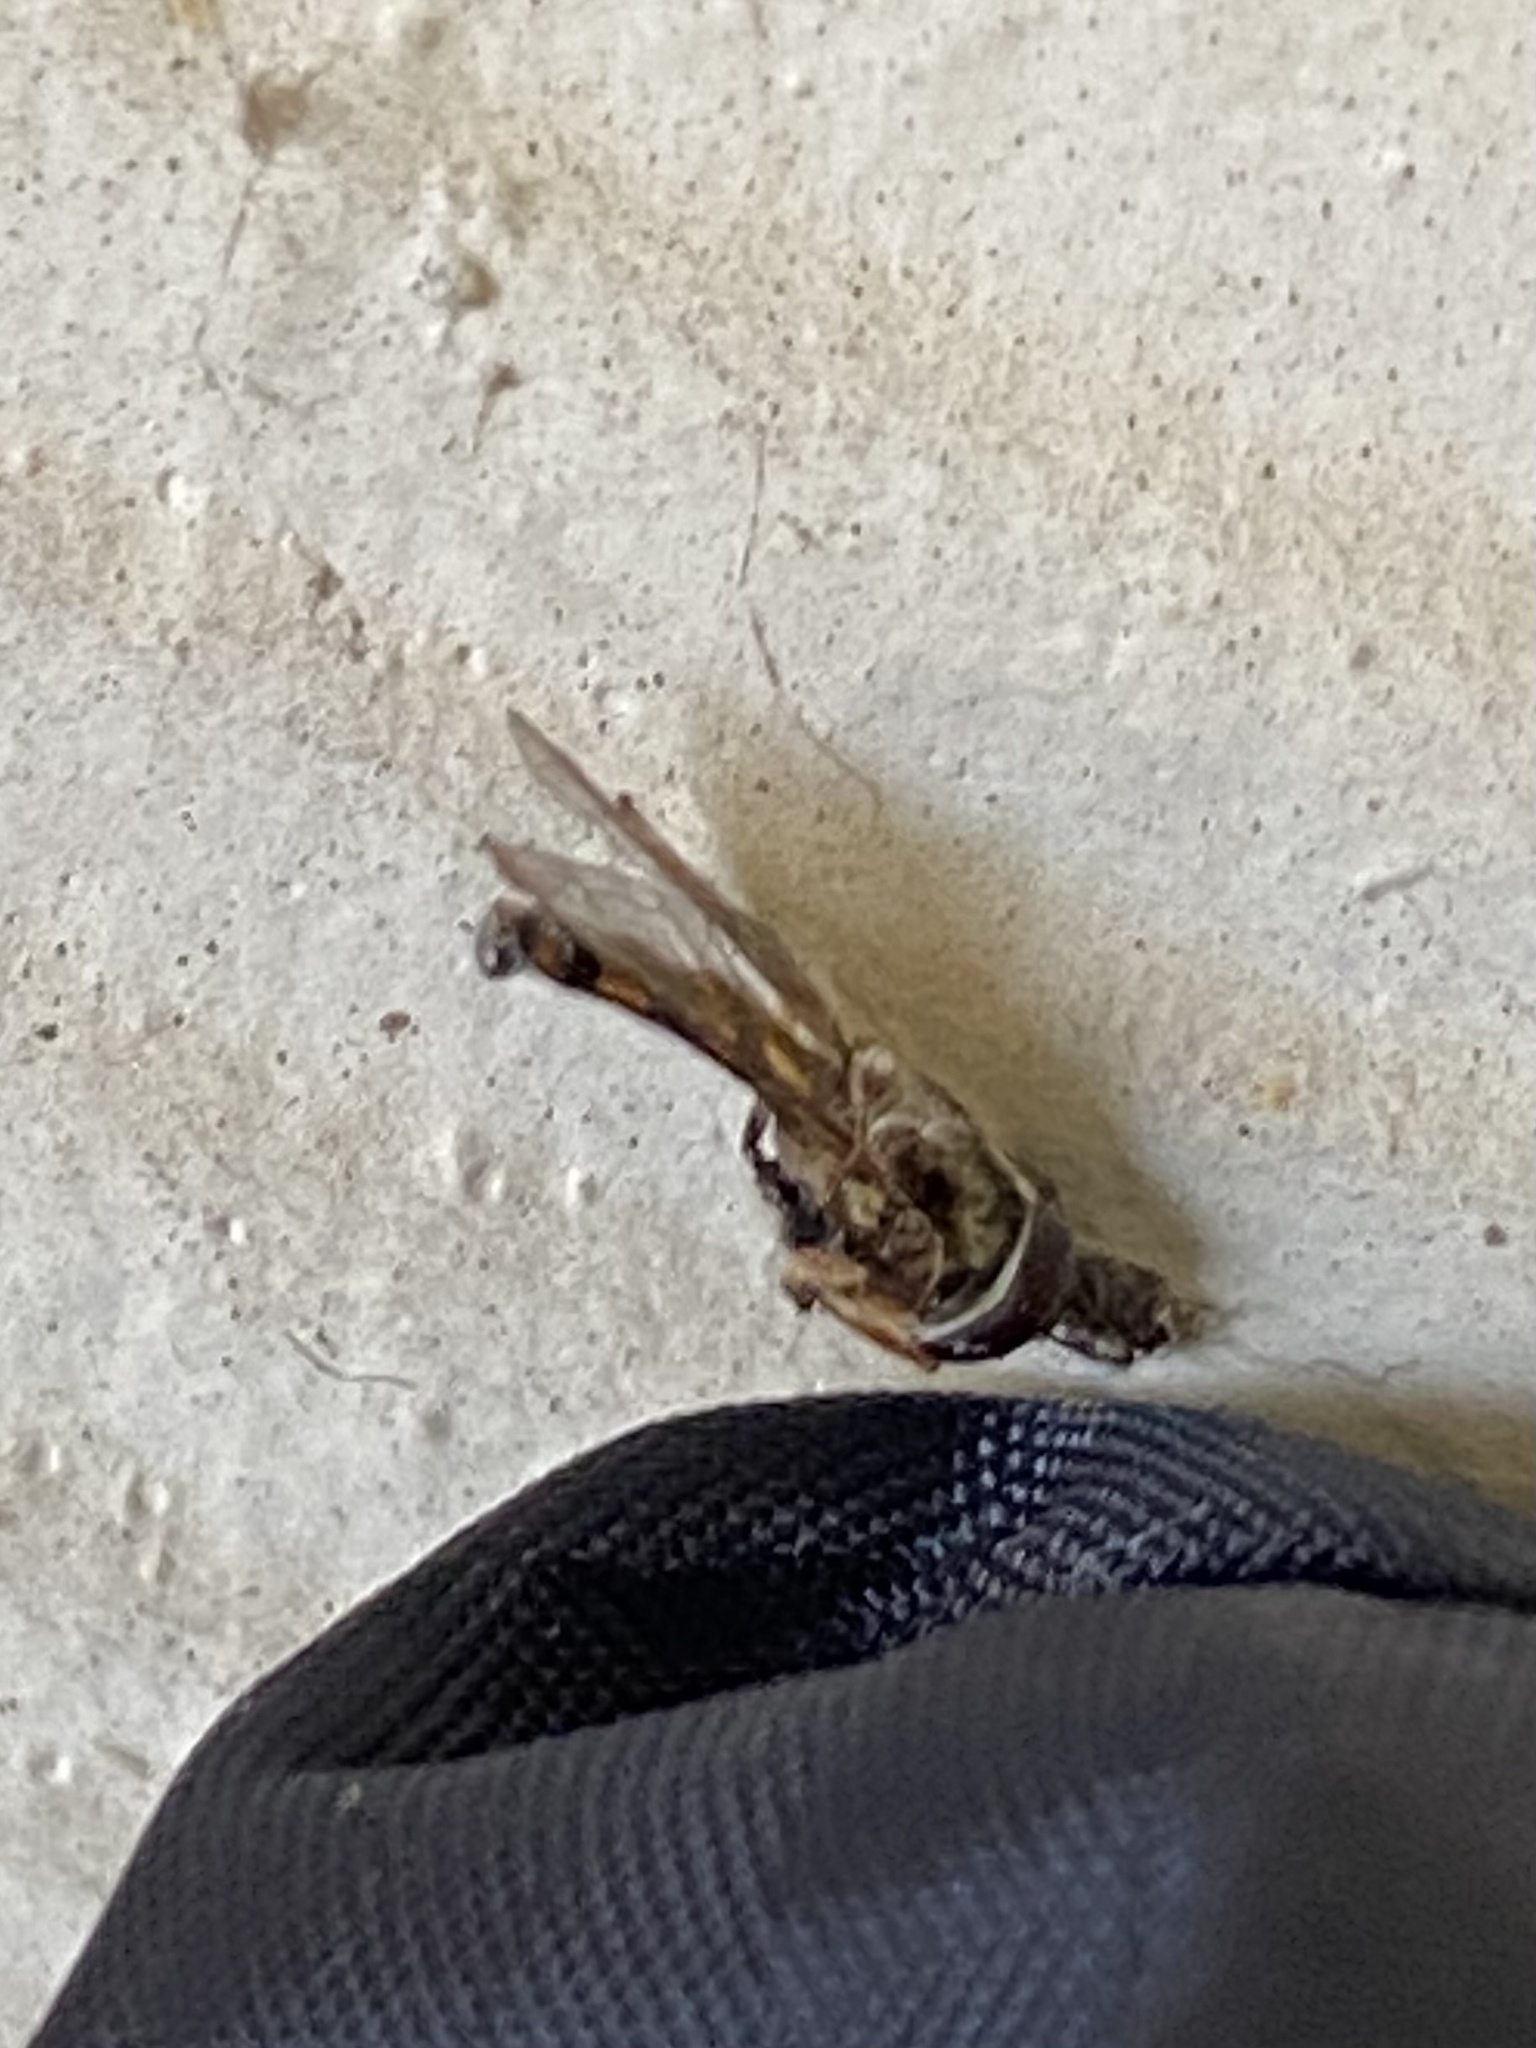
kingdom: Animalia
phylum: Arthropoda
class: Insecta
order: Diptera
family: Syrphidae
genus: Eupeodes
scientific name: Eupeodes
